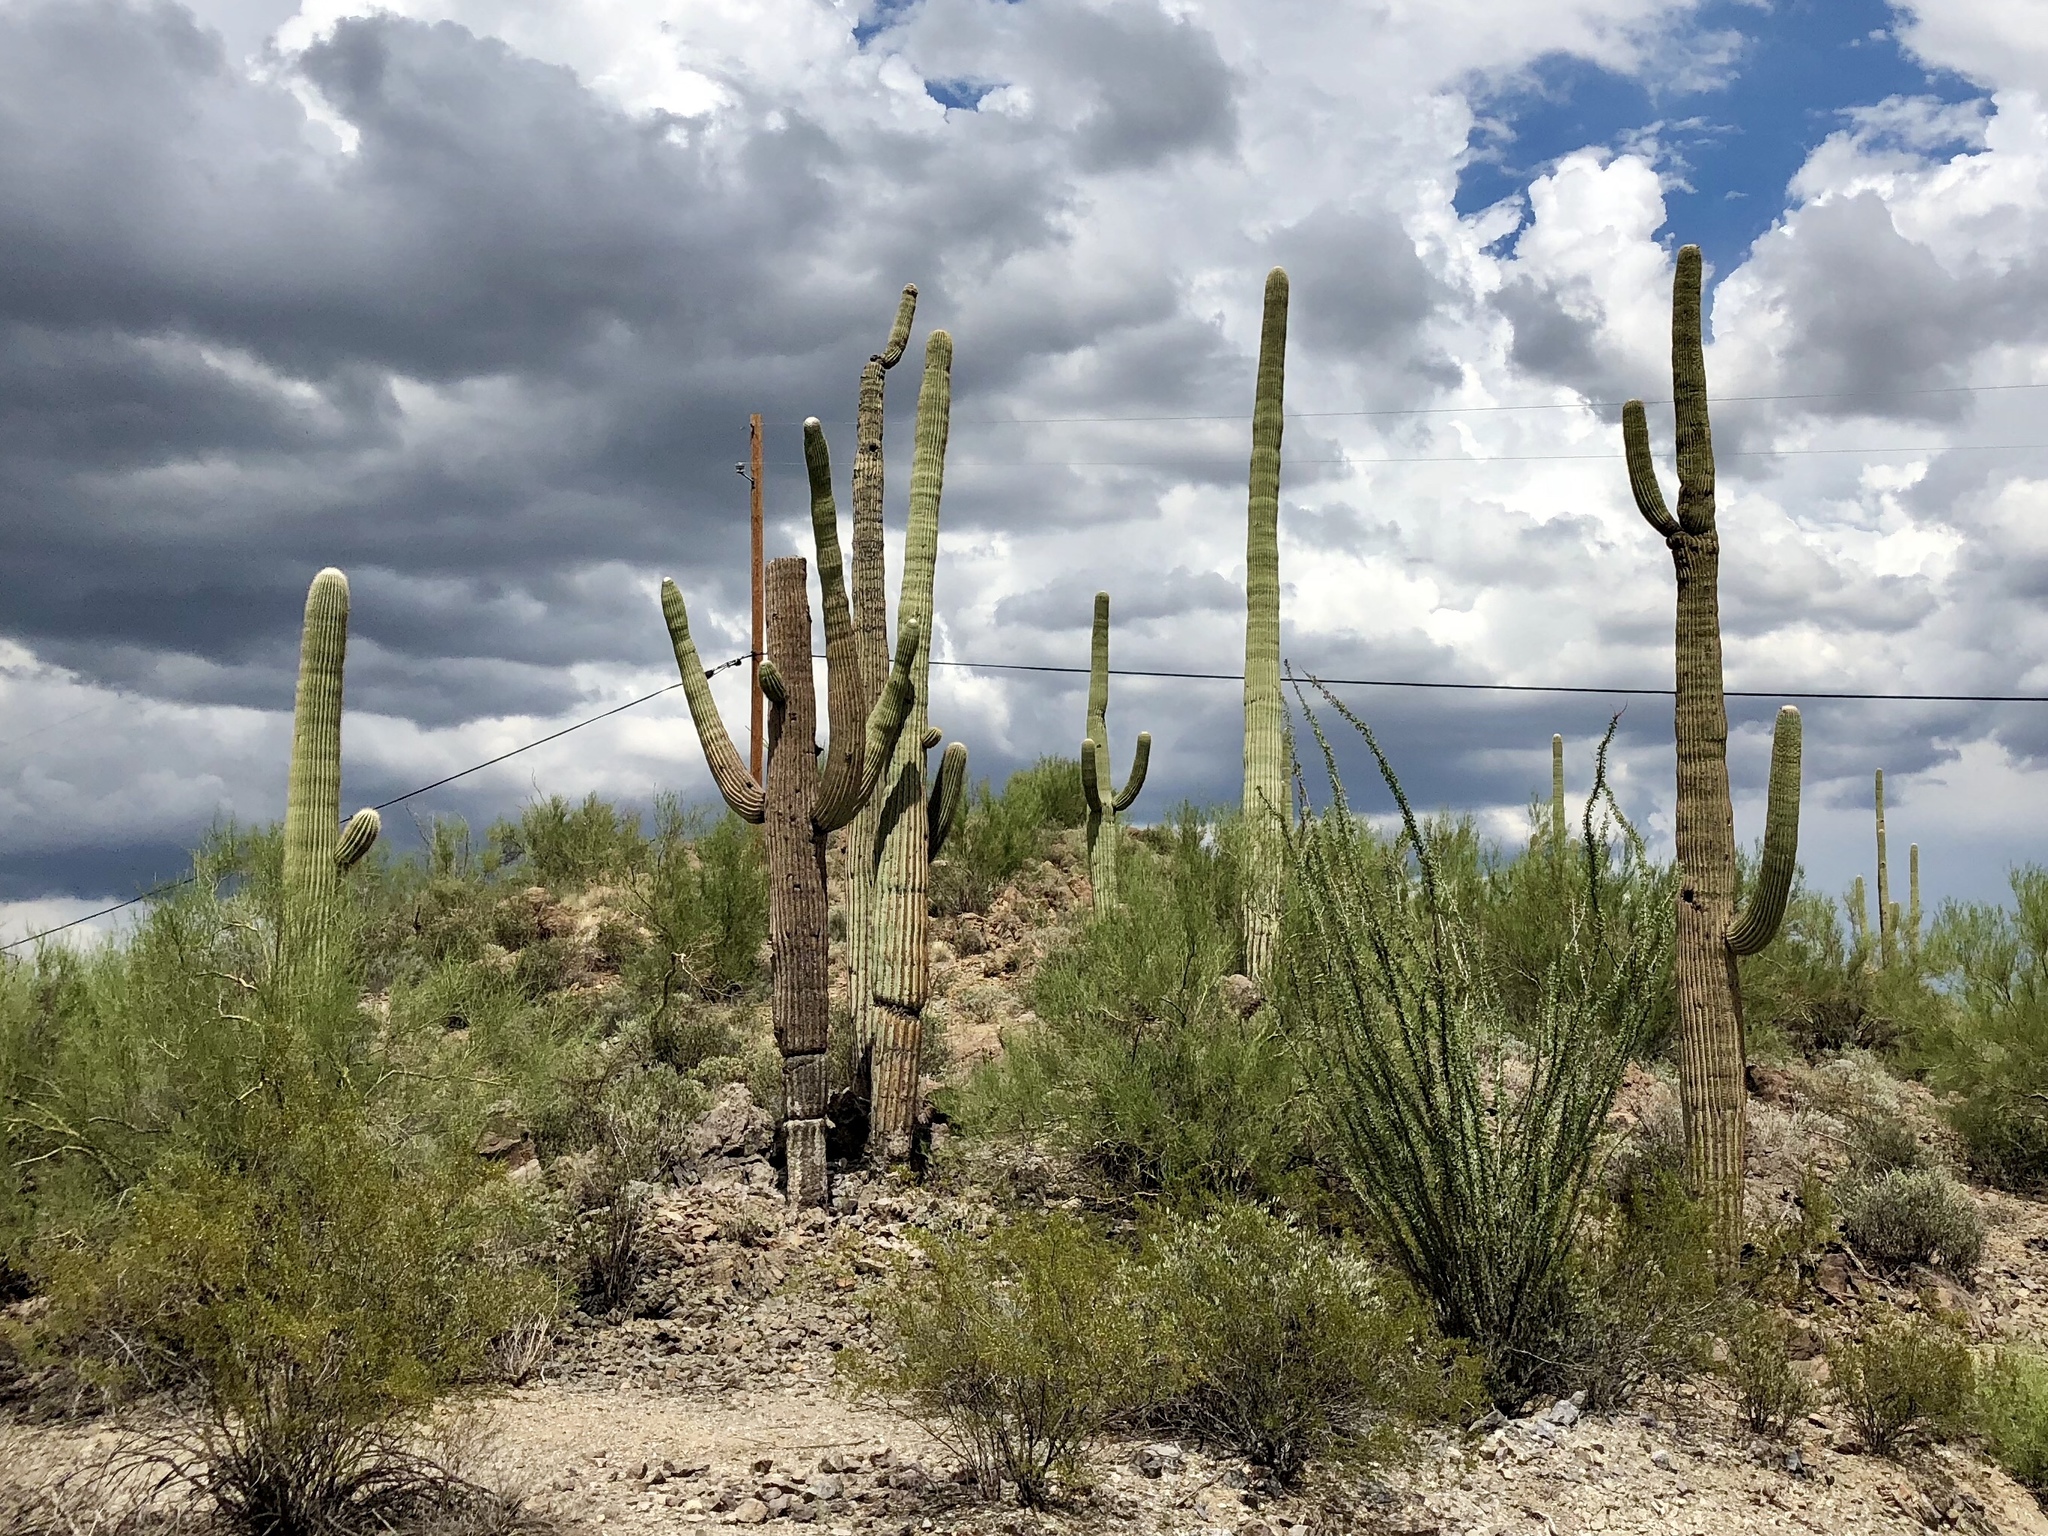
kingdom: Plantae
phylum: Tracheophyta
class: Magnoliopsida
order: Caryophyllales
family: Cactaceae
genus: Carnegiea
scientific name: Carnegiea gigantea
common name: Saguaro
